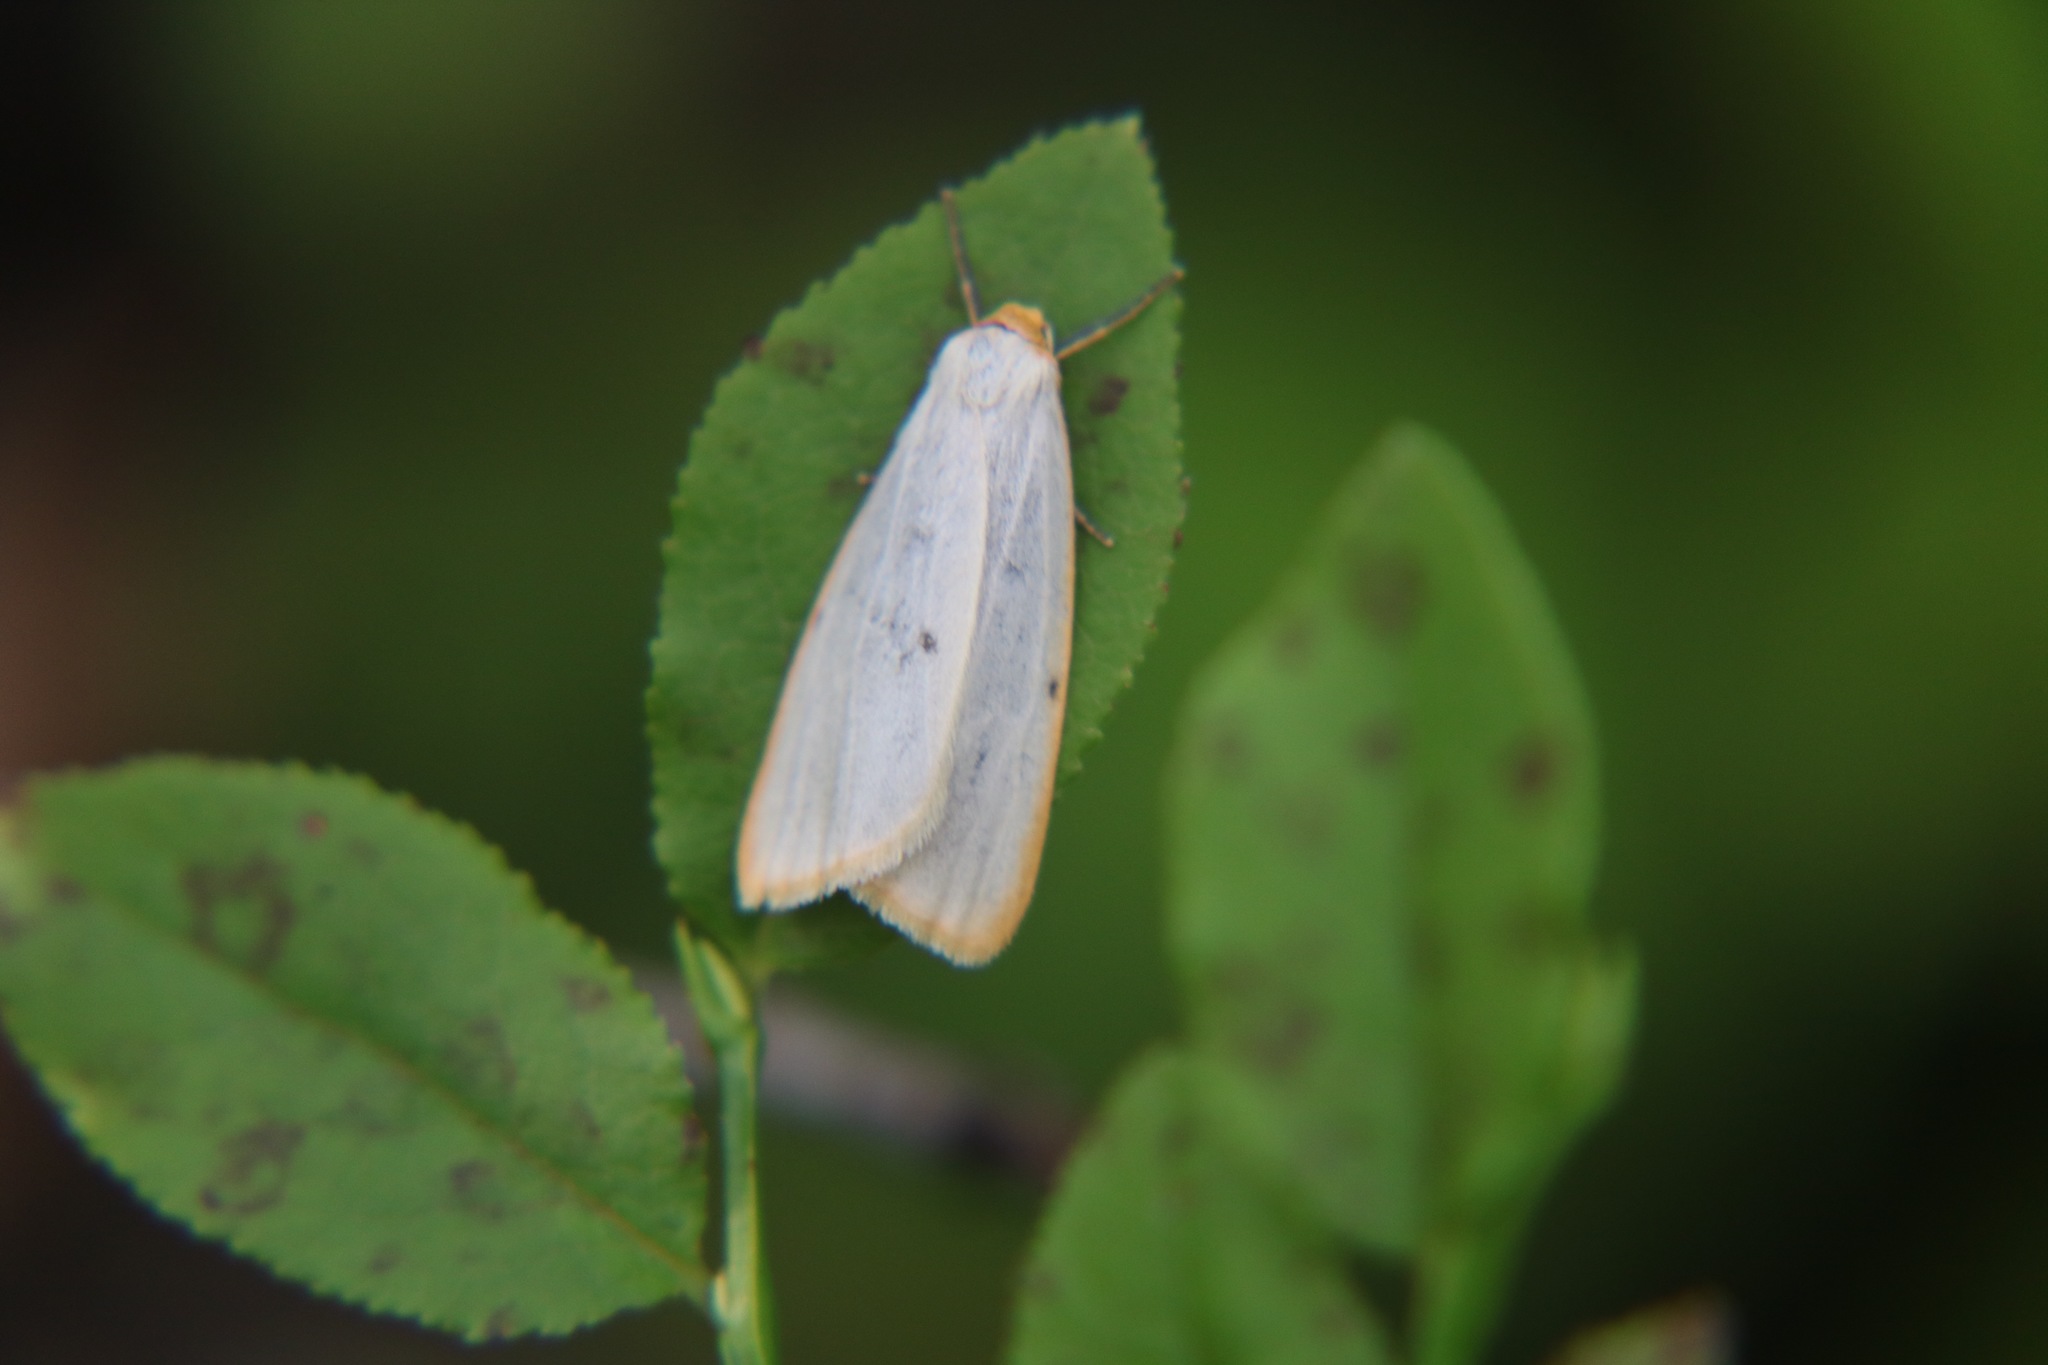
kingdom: Animalia
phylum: Arthropoda
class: Insecta
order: Lepidoptera
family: Erebidae
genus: Cybosia
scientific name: Cybosia mesomella
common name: Four-dotted footman
